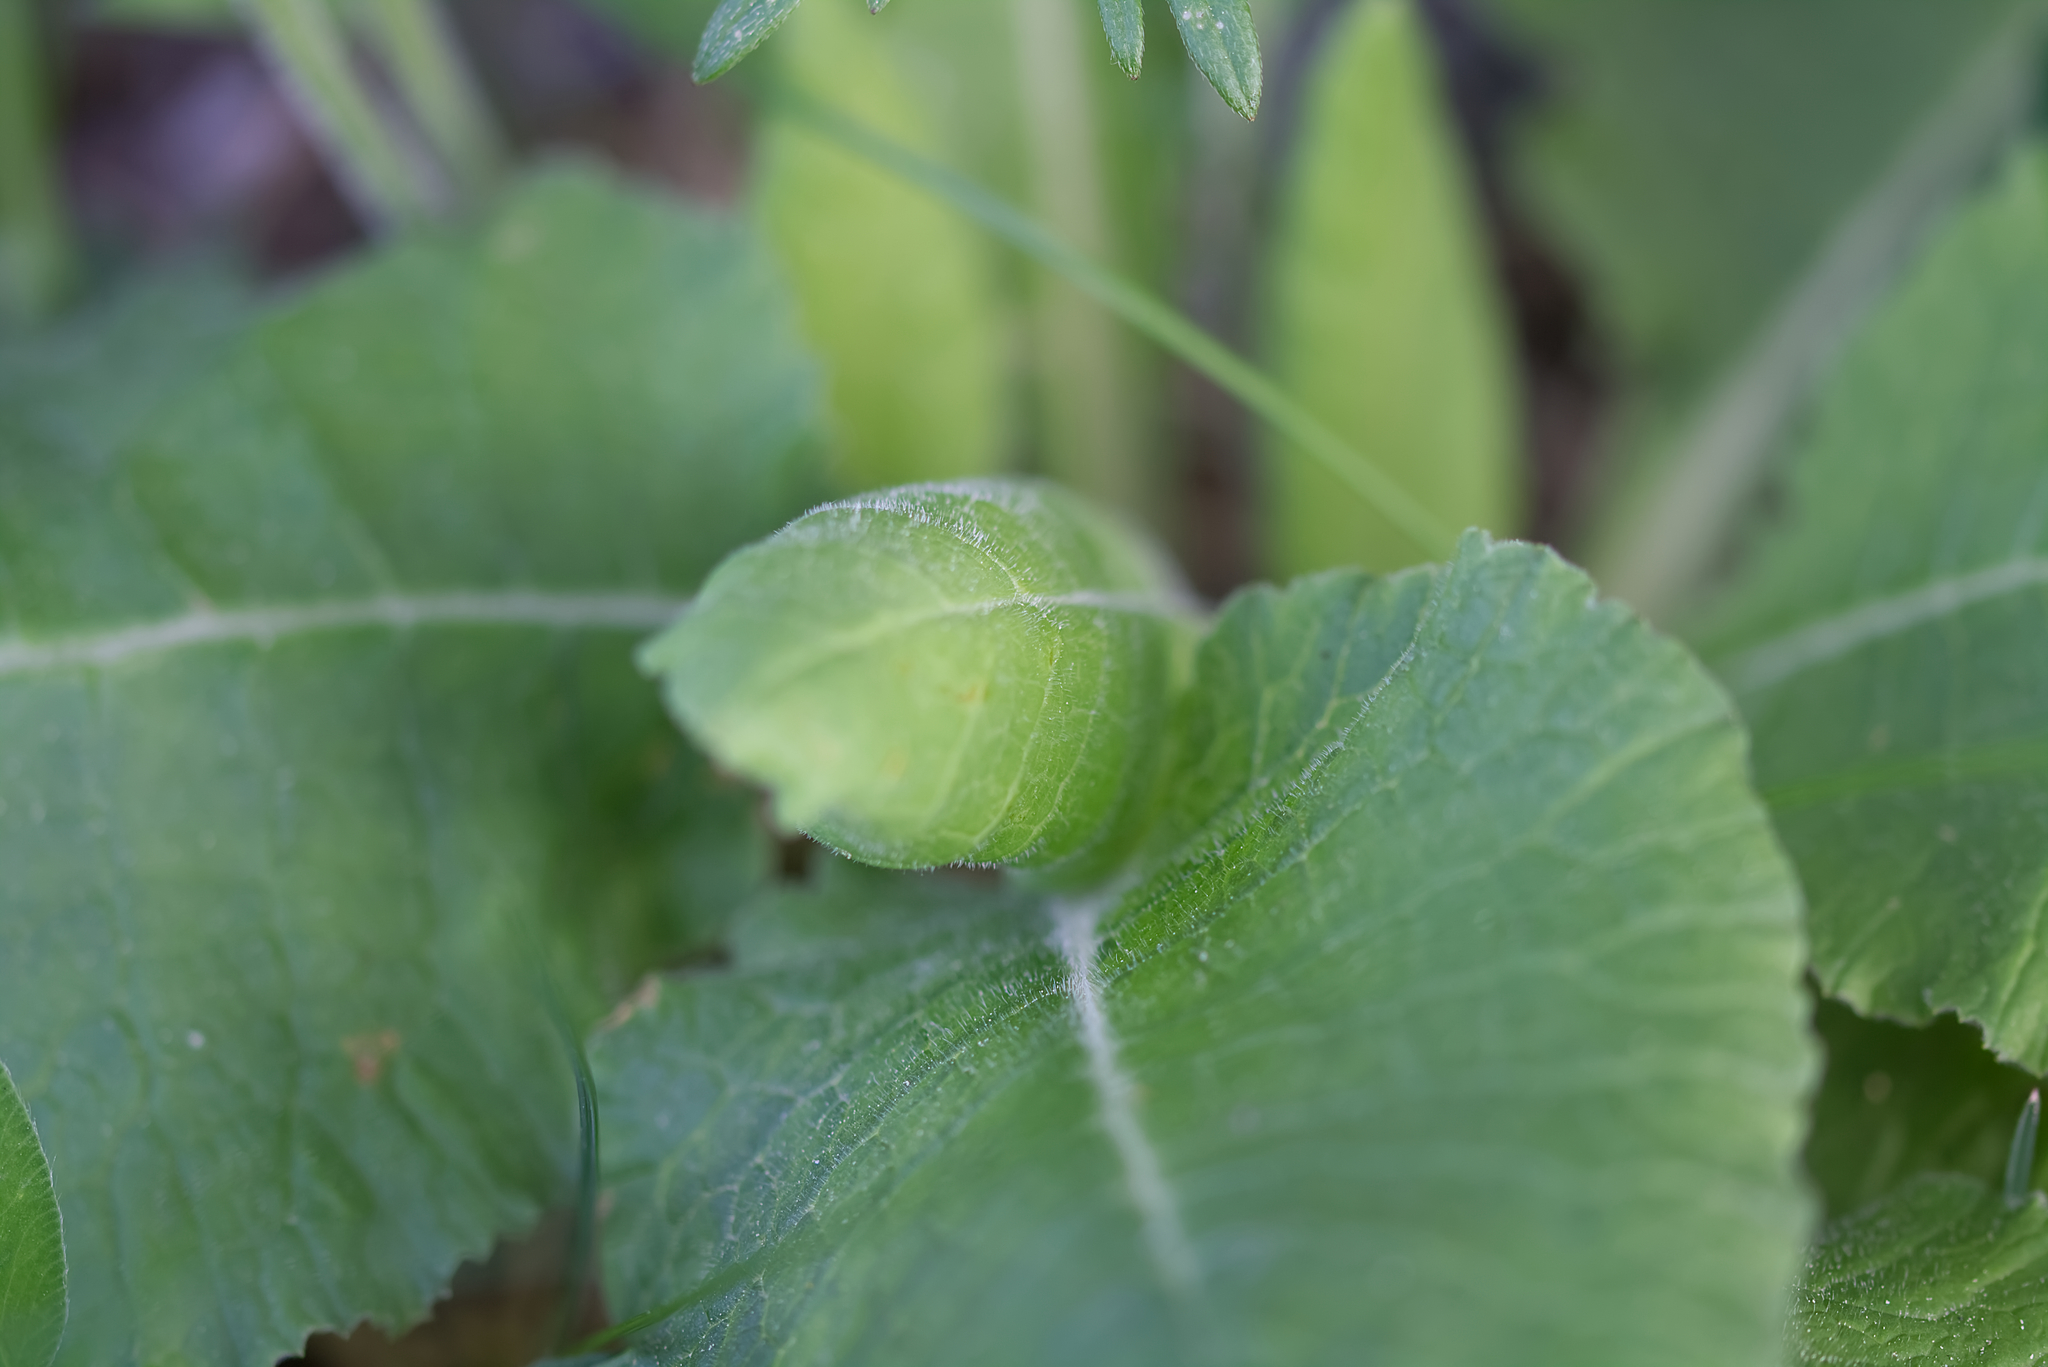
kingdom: Plantae
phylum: Tracheophyta
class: Magnoliopsida
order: Ericales
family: Primulaceae
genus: Primula
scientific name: Primula elatior
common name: Oxlip
